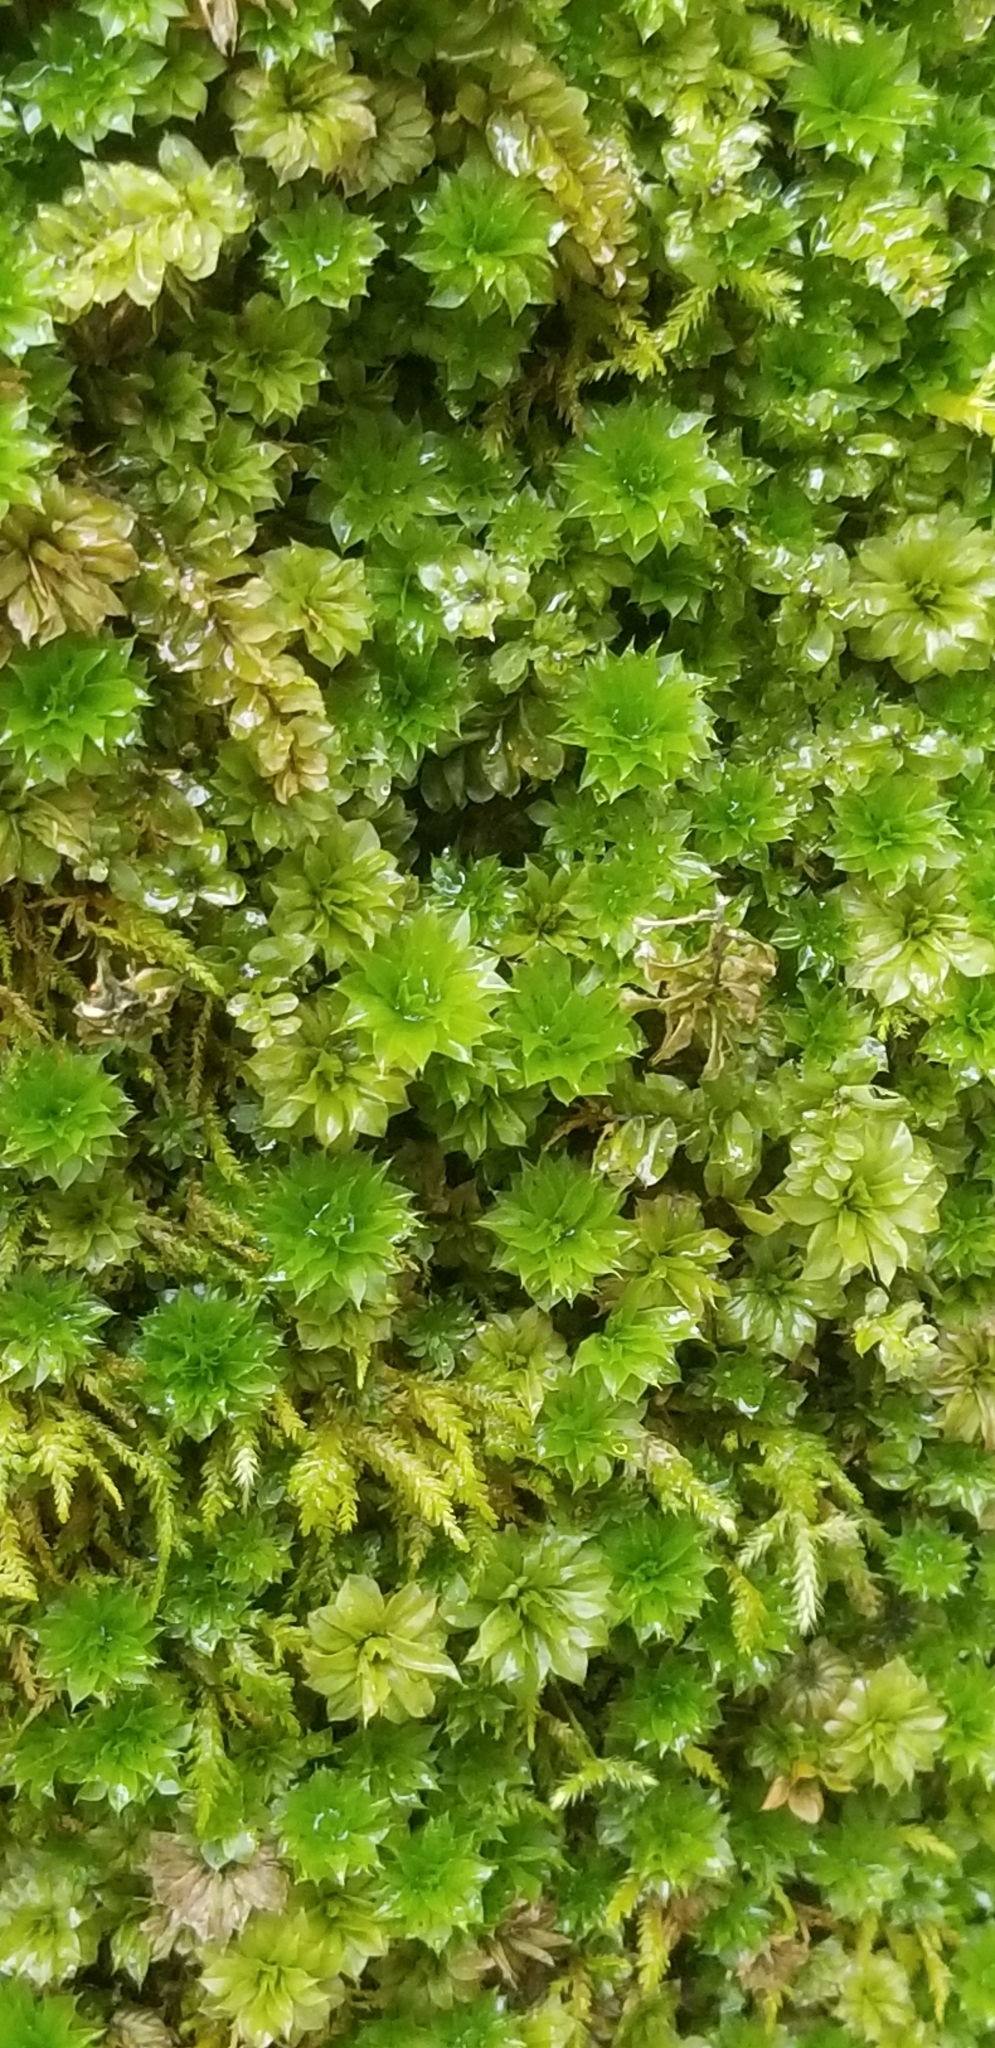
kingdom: Plantae
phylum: Bryophyta
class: Bryopsida
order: Bryales
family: Bryaceae
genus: Rhodobryum
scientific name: Rhodobryum ontariense
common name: Ontario rhodobryum moss
